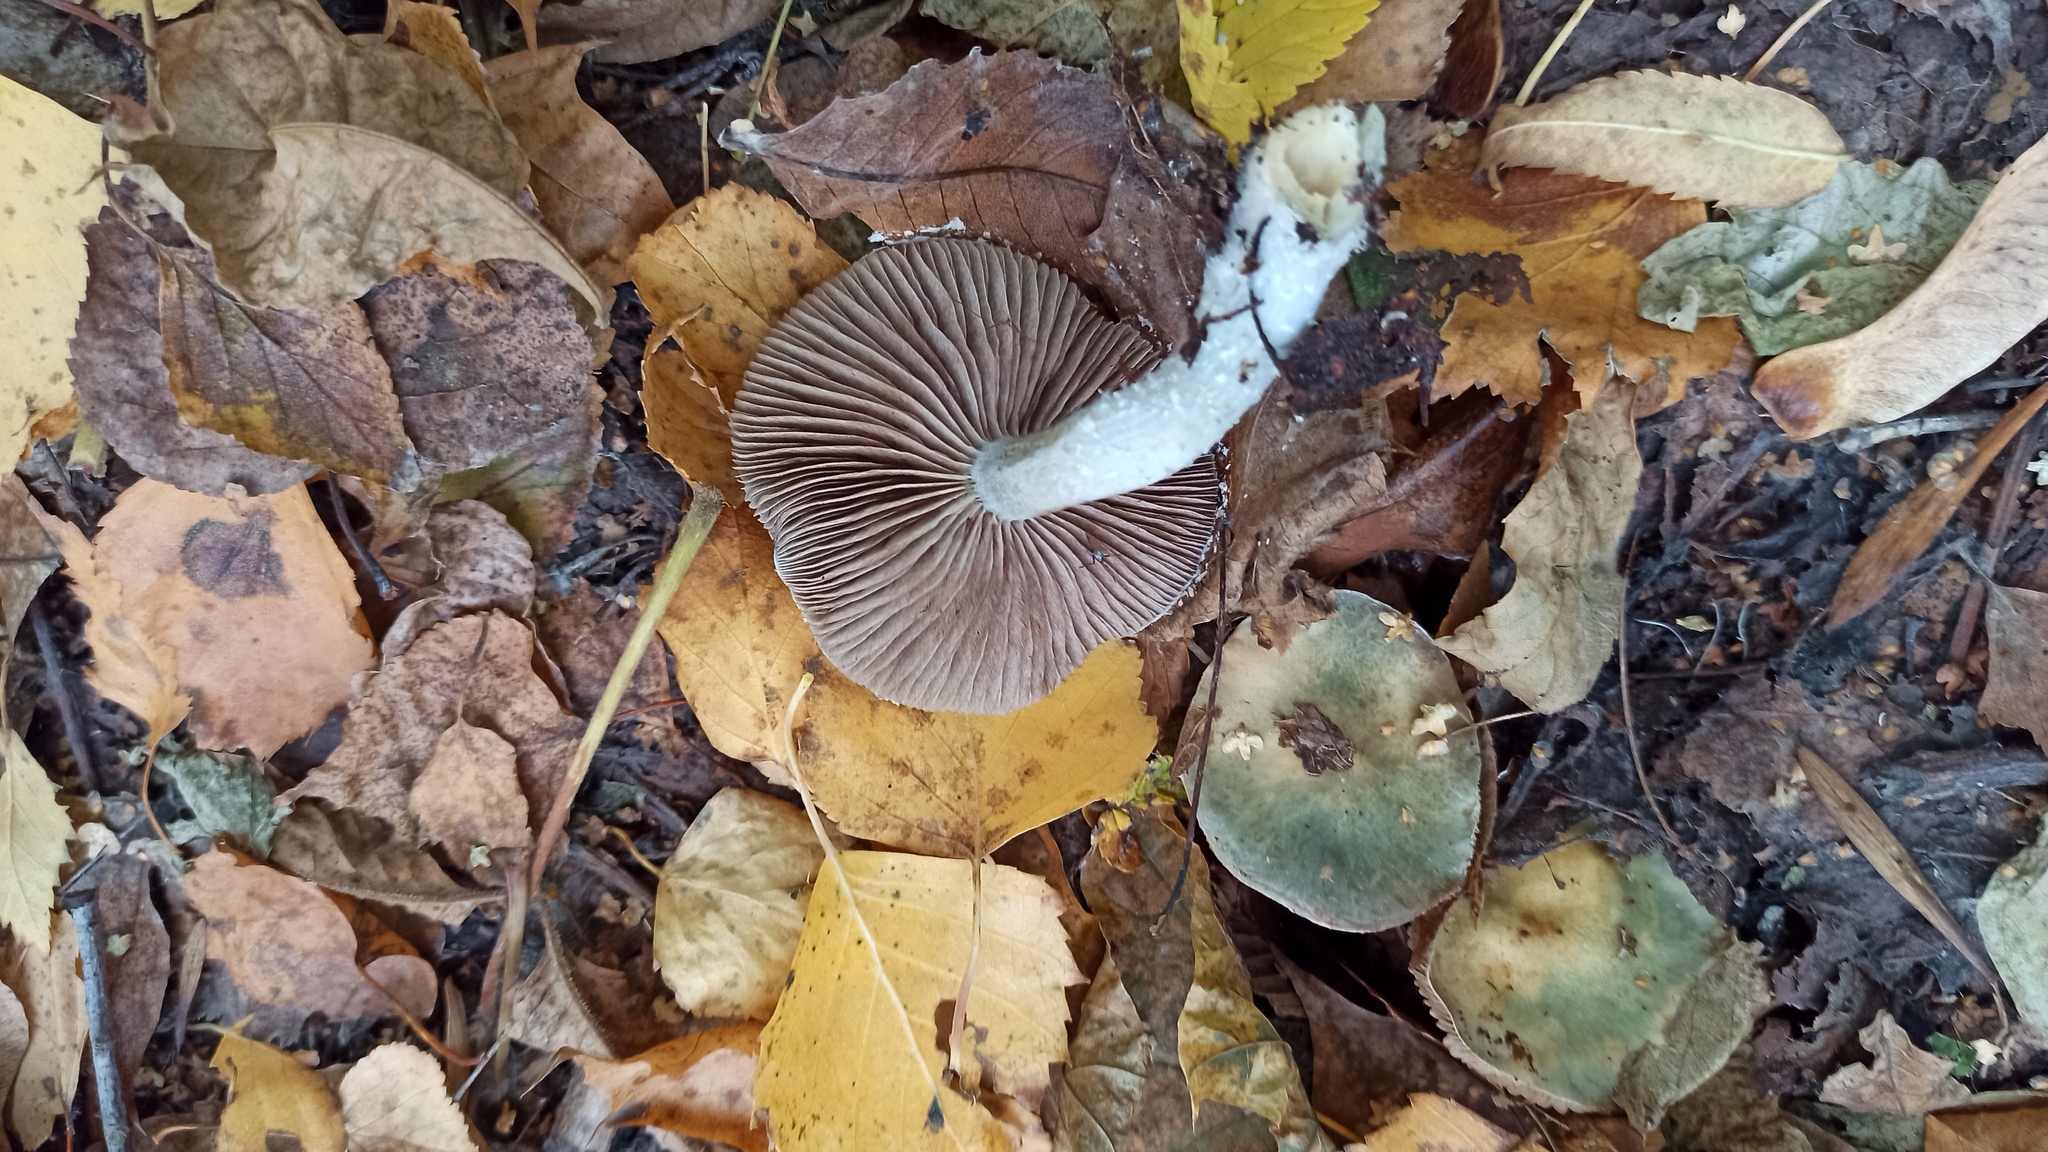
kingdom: Fungi
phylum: Basidiomycota
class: Agaricomycetes
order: Agaricales
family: Strophariaceae
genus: Stropharia
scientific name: Stropharia caerulea
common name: Blue roundhead
